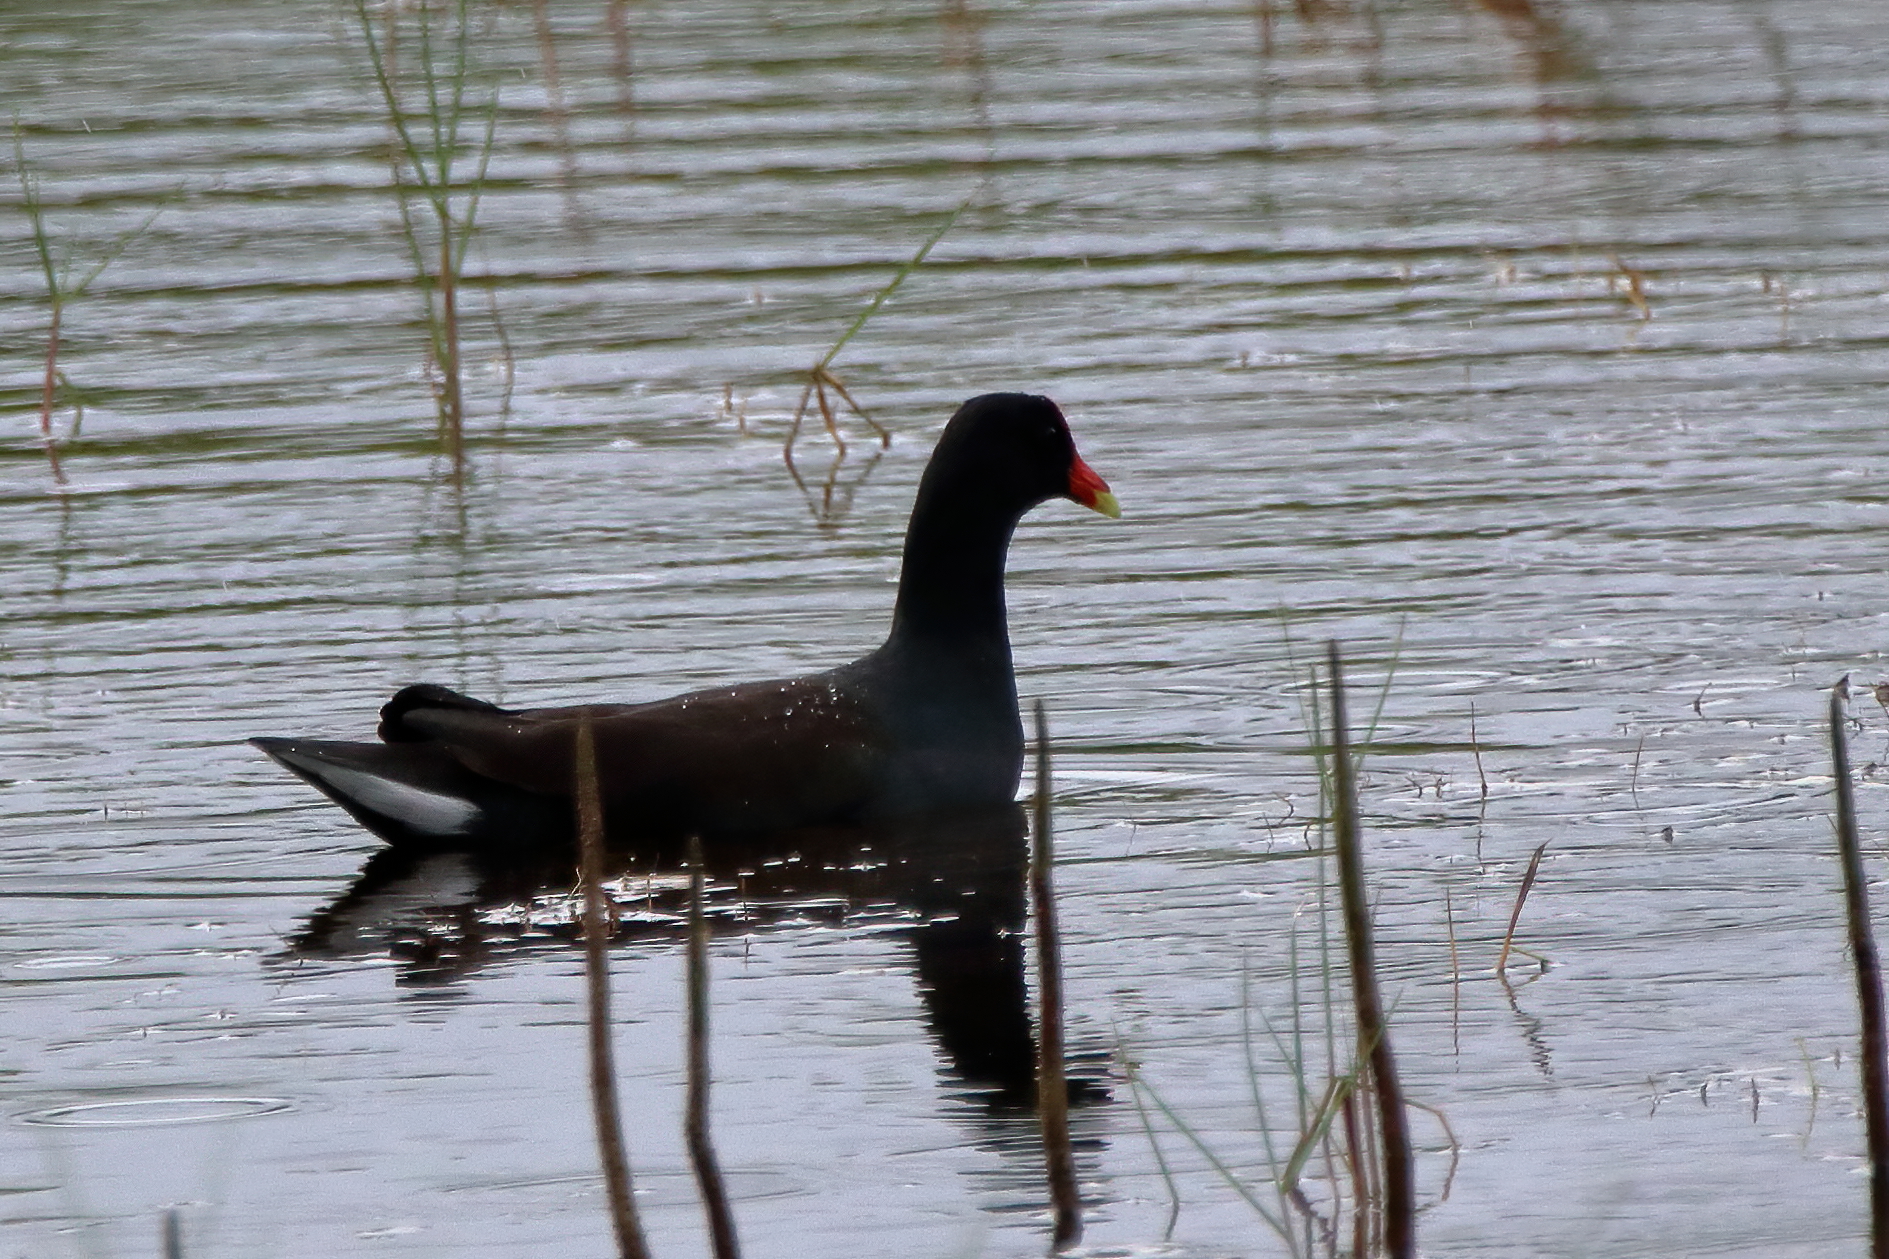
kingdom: Animalia
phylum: Chordata
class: Aves
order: Gruiformes
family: Rallidae
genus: Gallinula
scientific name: Gallinula chloropus
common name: Common moorhen
